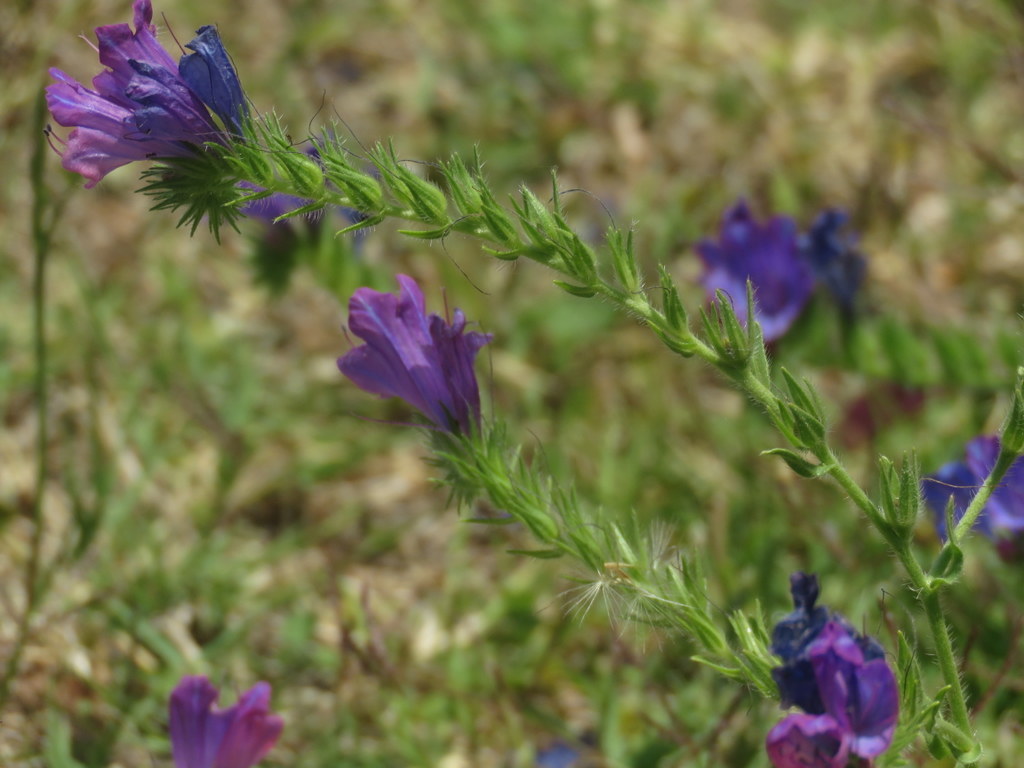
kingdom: Plantae
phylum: Tracheophyta
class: Magnoliopsida
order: Boraginales
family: Boraginaceae
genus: Echium
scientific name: Echium plantagineum
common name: Purple viper's-bugloss
